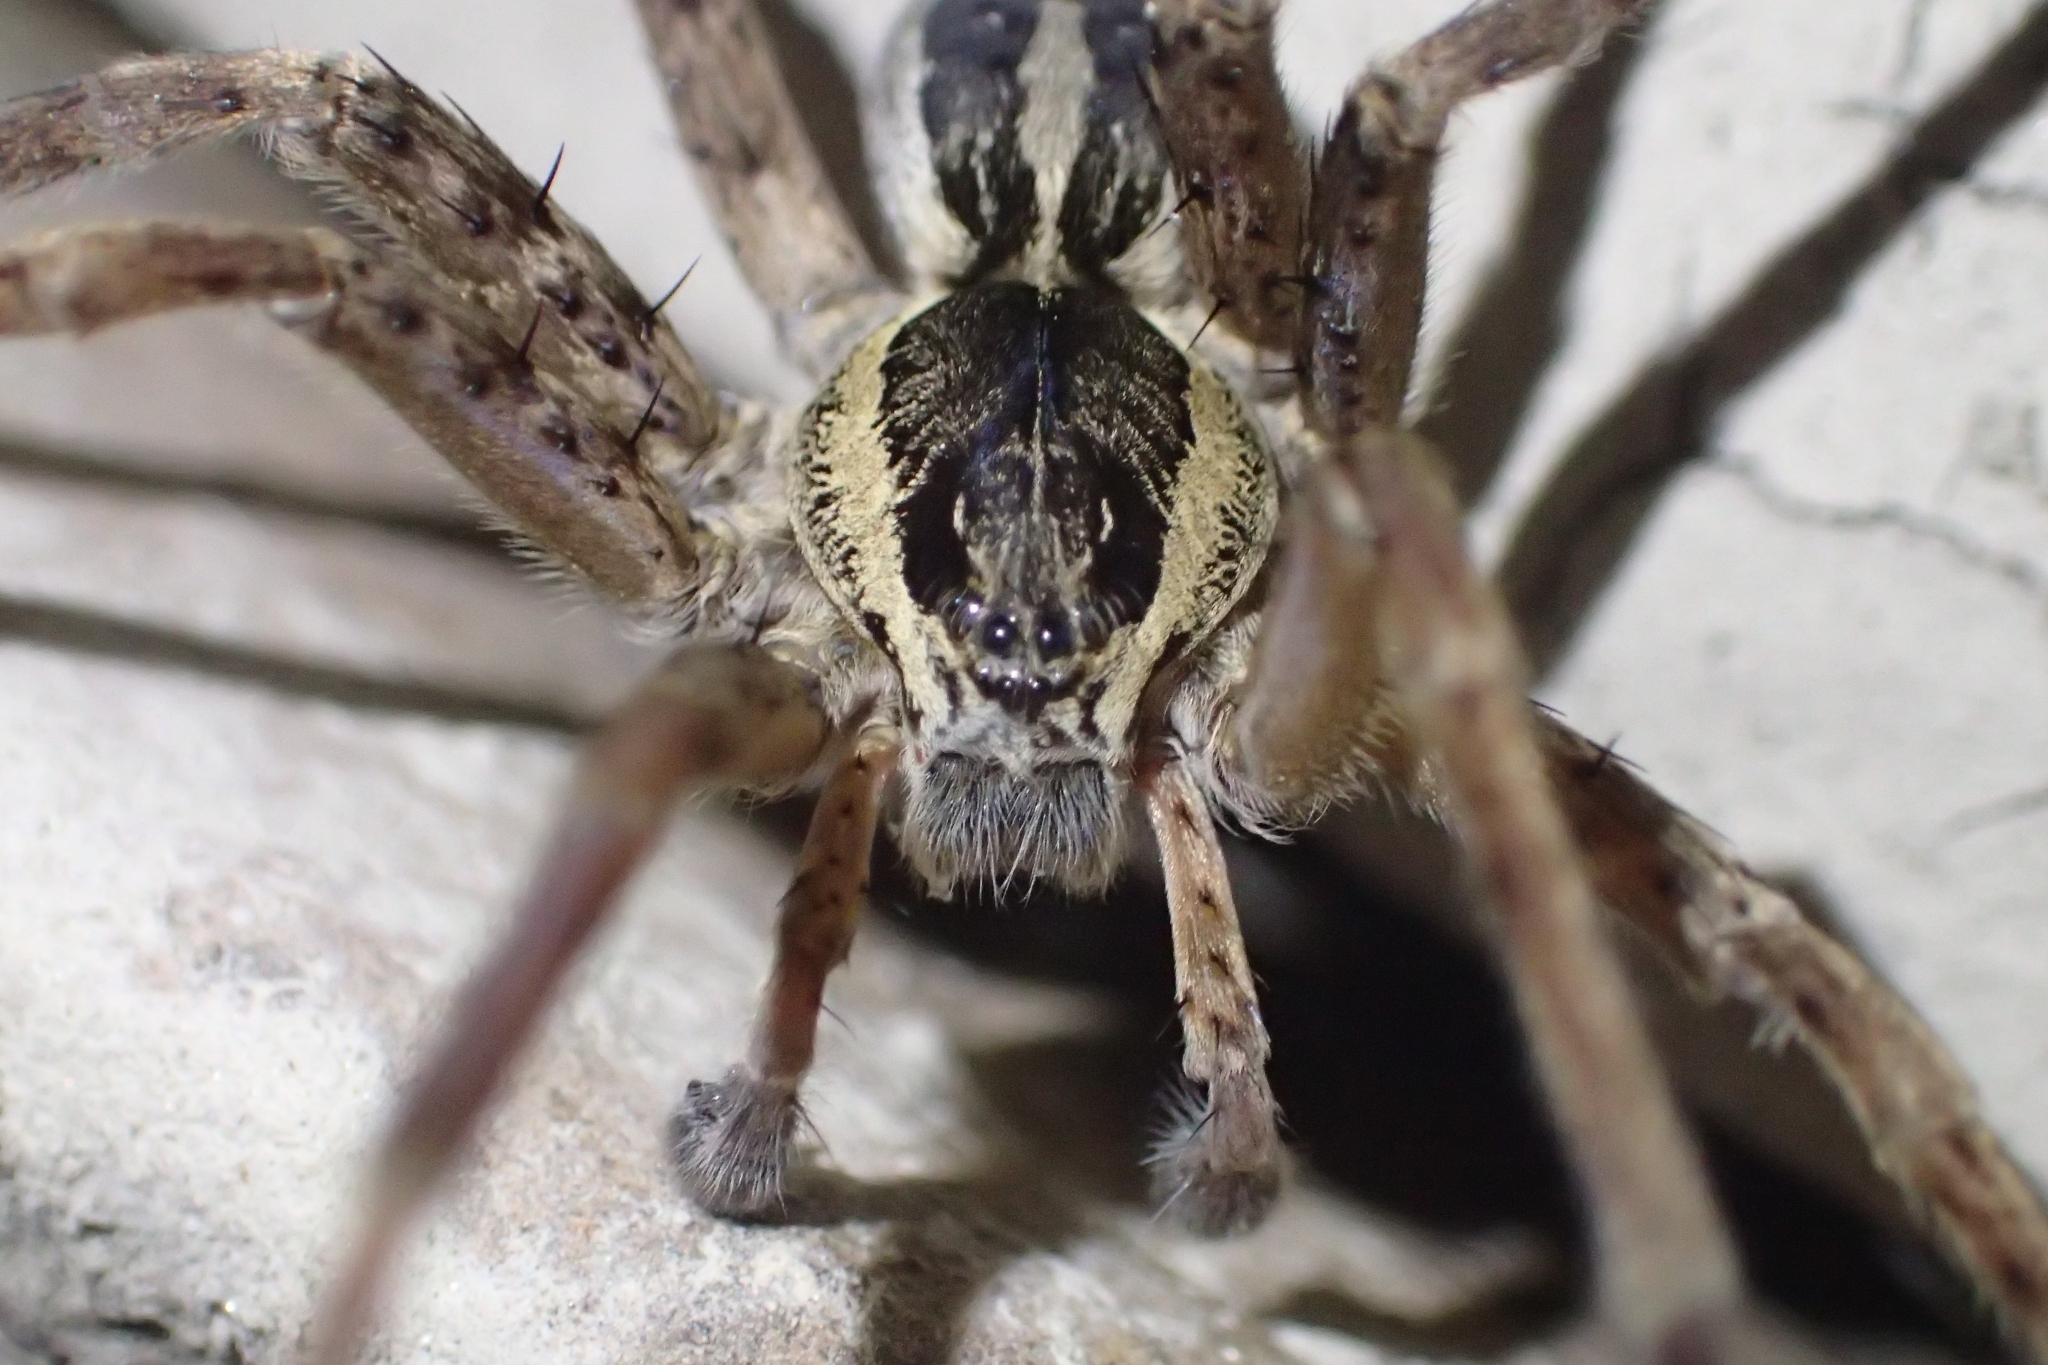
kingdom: Animalia
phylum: Arthropoda
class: Arachnida
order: Araneae
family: Pisauridae
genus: Dolomedes
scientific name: Dolomedes dondalei
